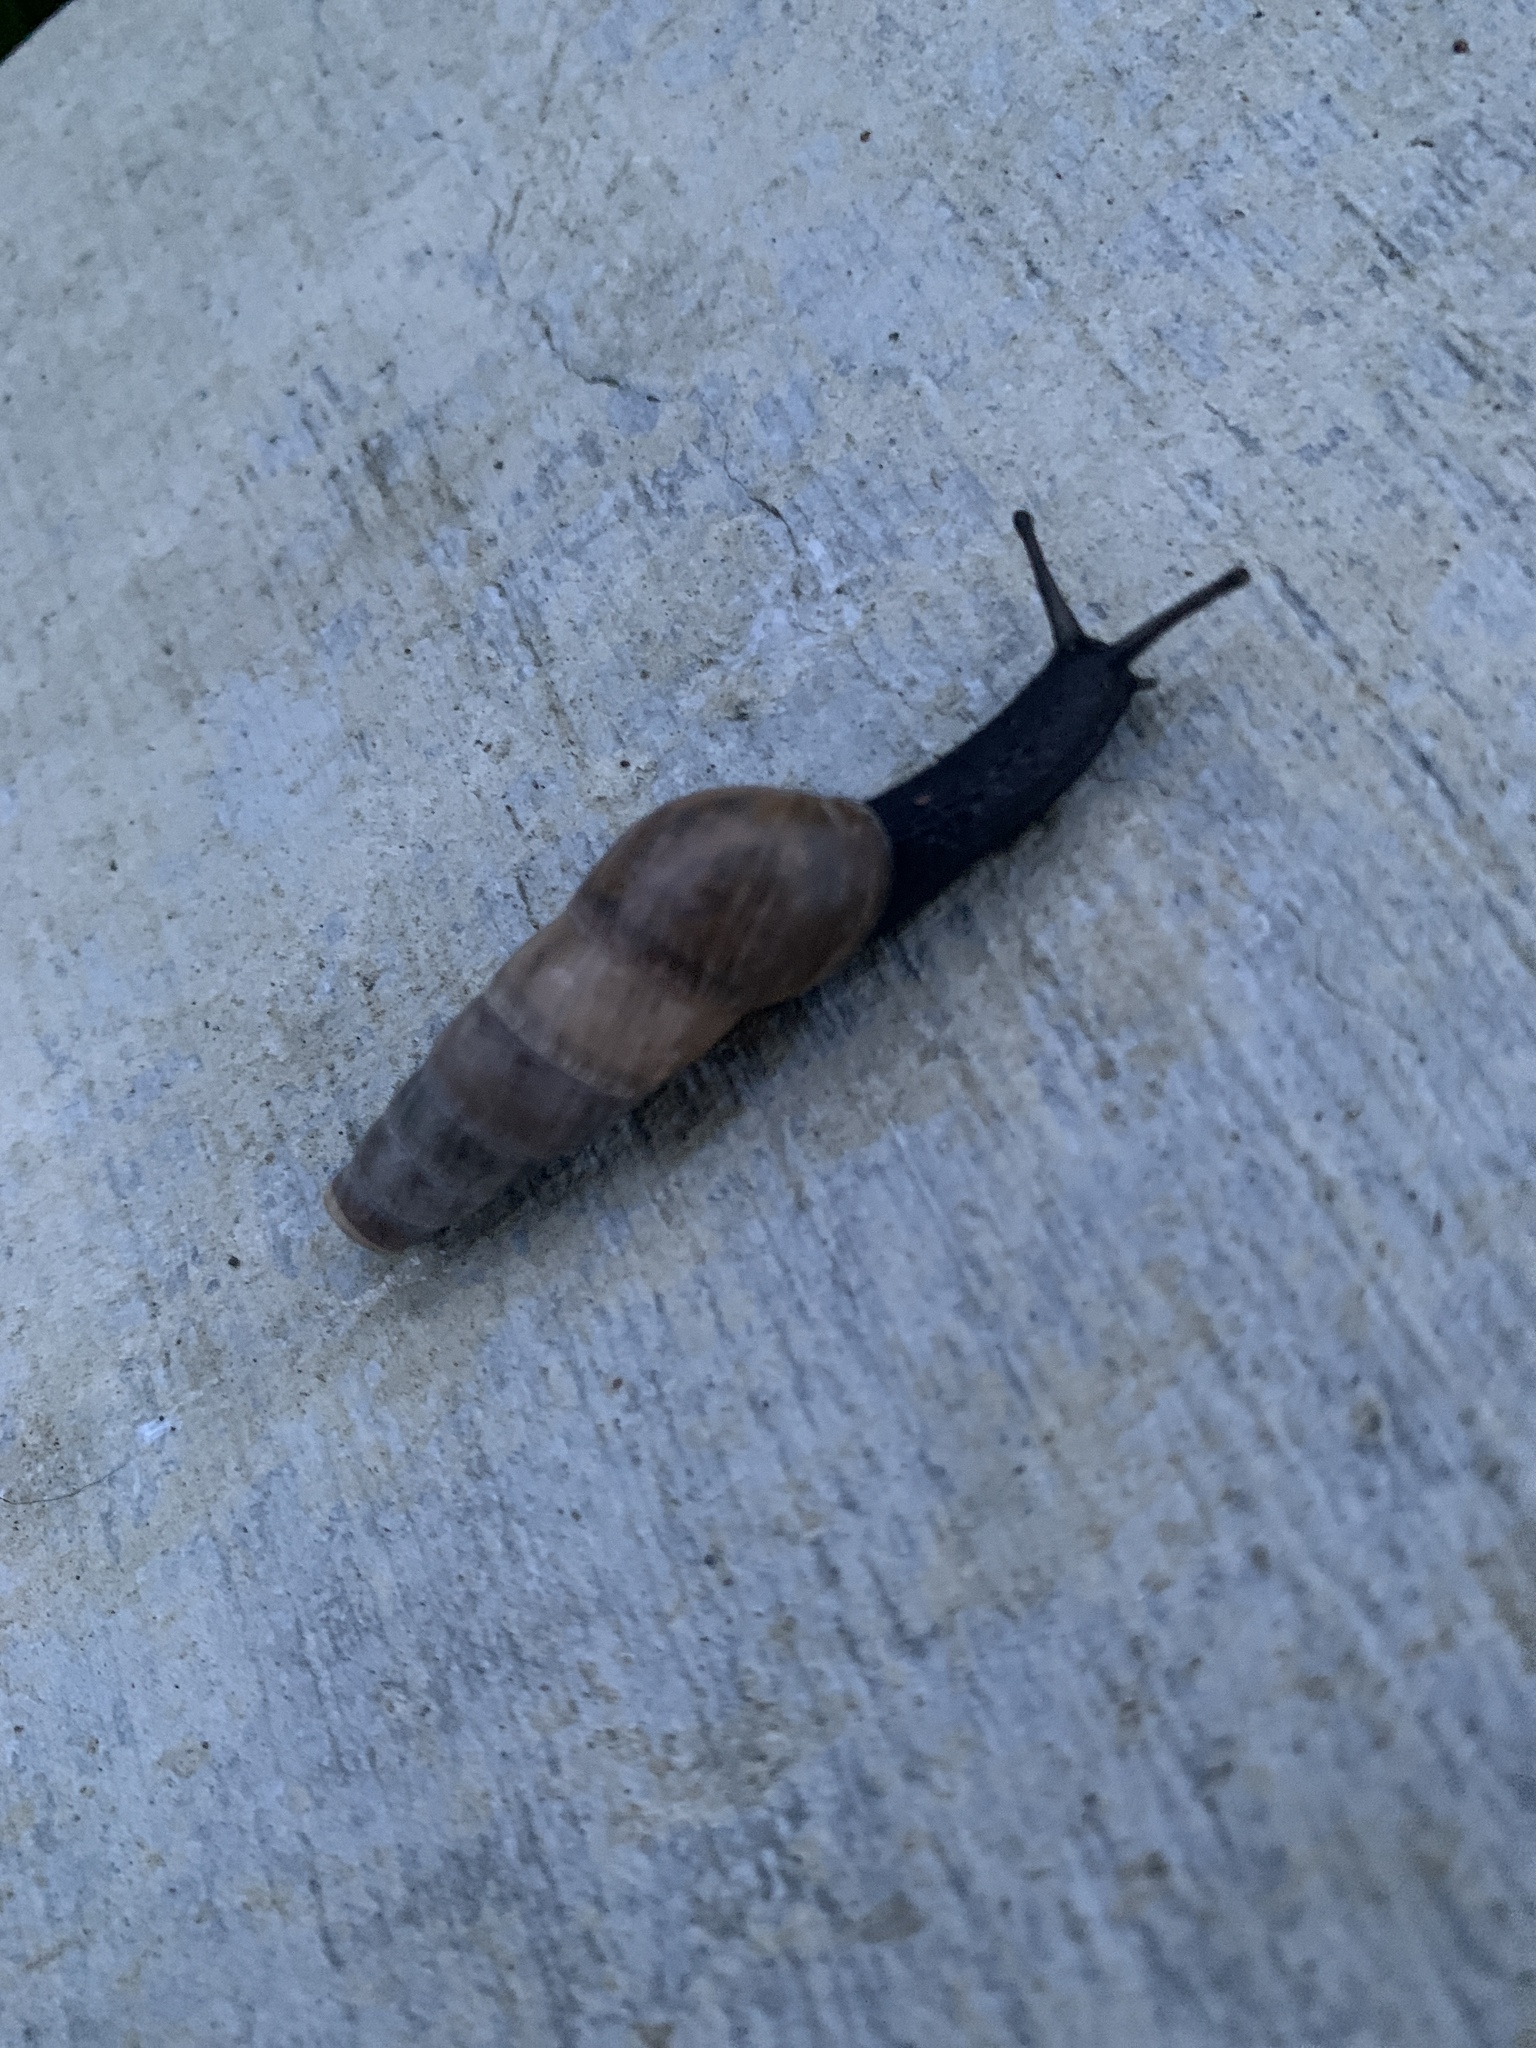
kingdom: Animalia
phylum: Mollusca
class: Gastropoda
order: Stylommatophora
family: Achatinidae
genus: Rumina
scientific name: Rumina decollata
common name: Decollate snail
